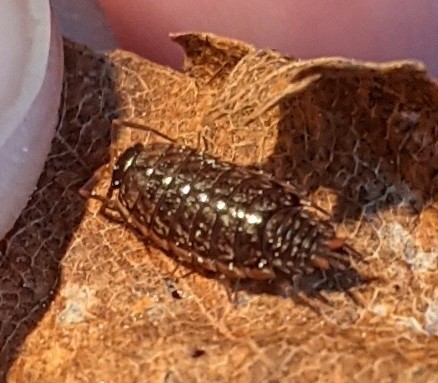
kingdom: Animalia
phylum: Arthropoda
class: Malacostraca
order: Isopoda
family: Philosciidae
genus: Philoscia
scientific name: Philoscia muscorum
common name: Common striped woodlouse
